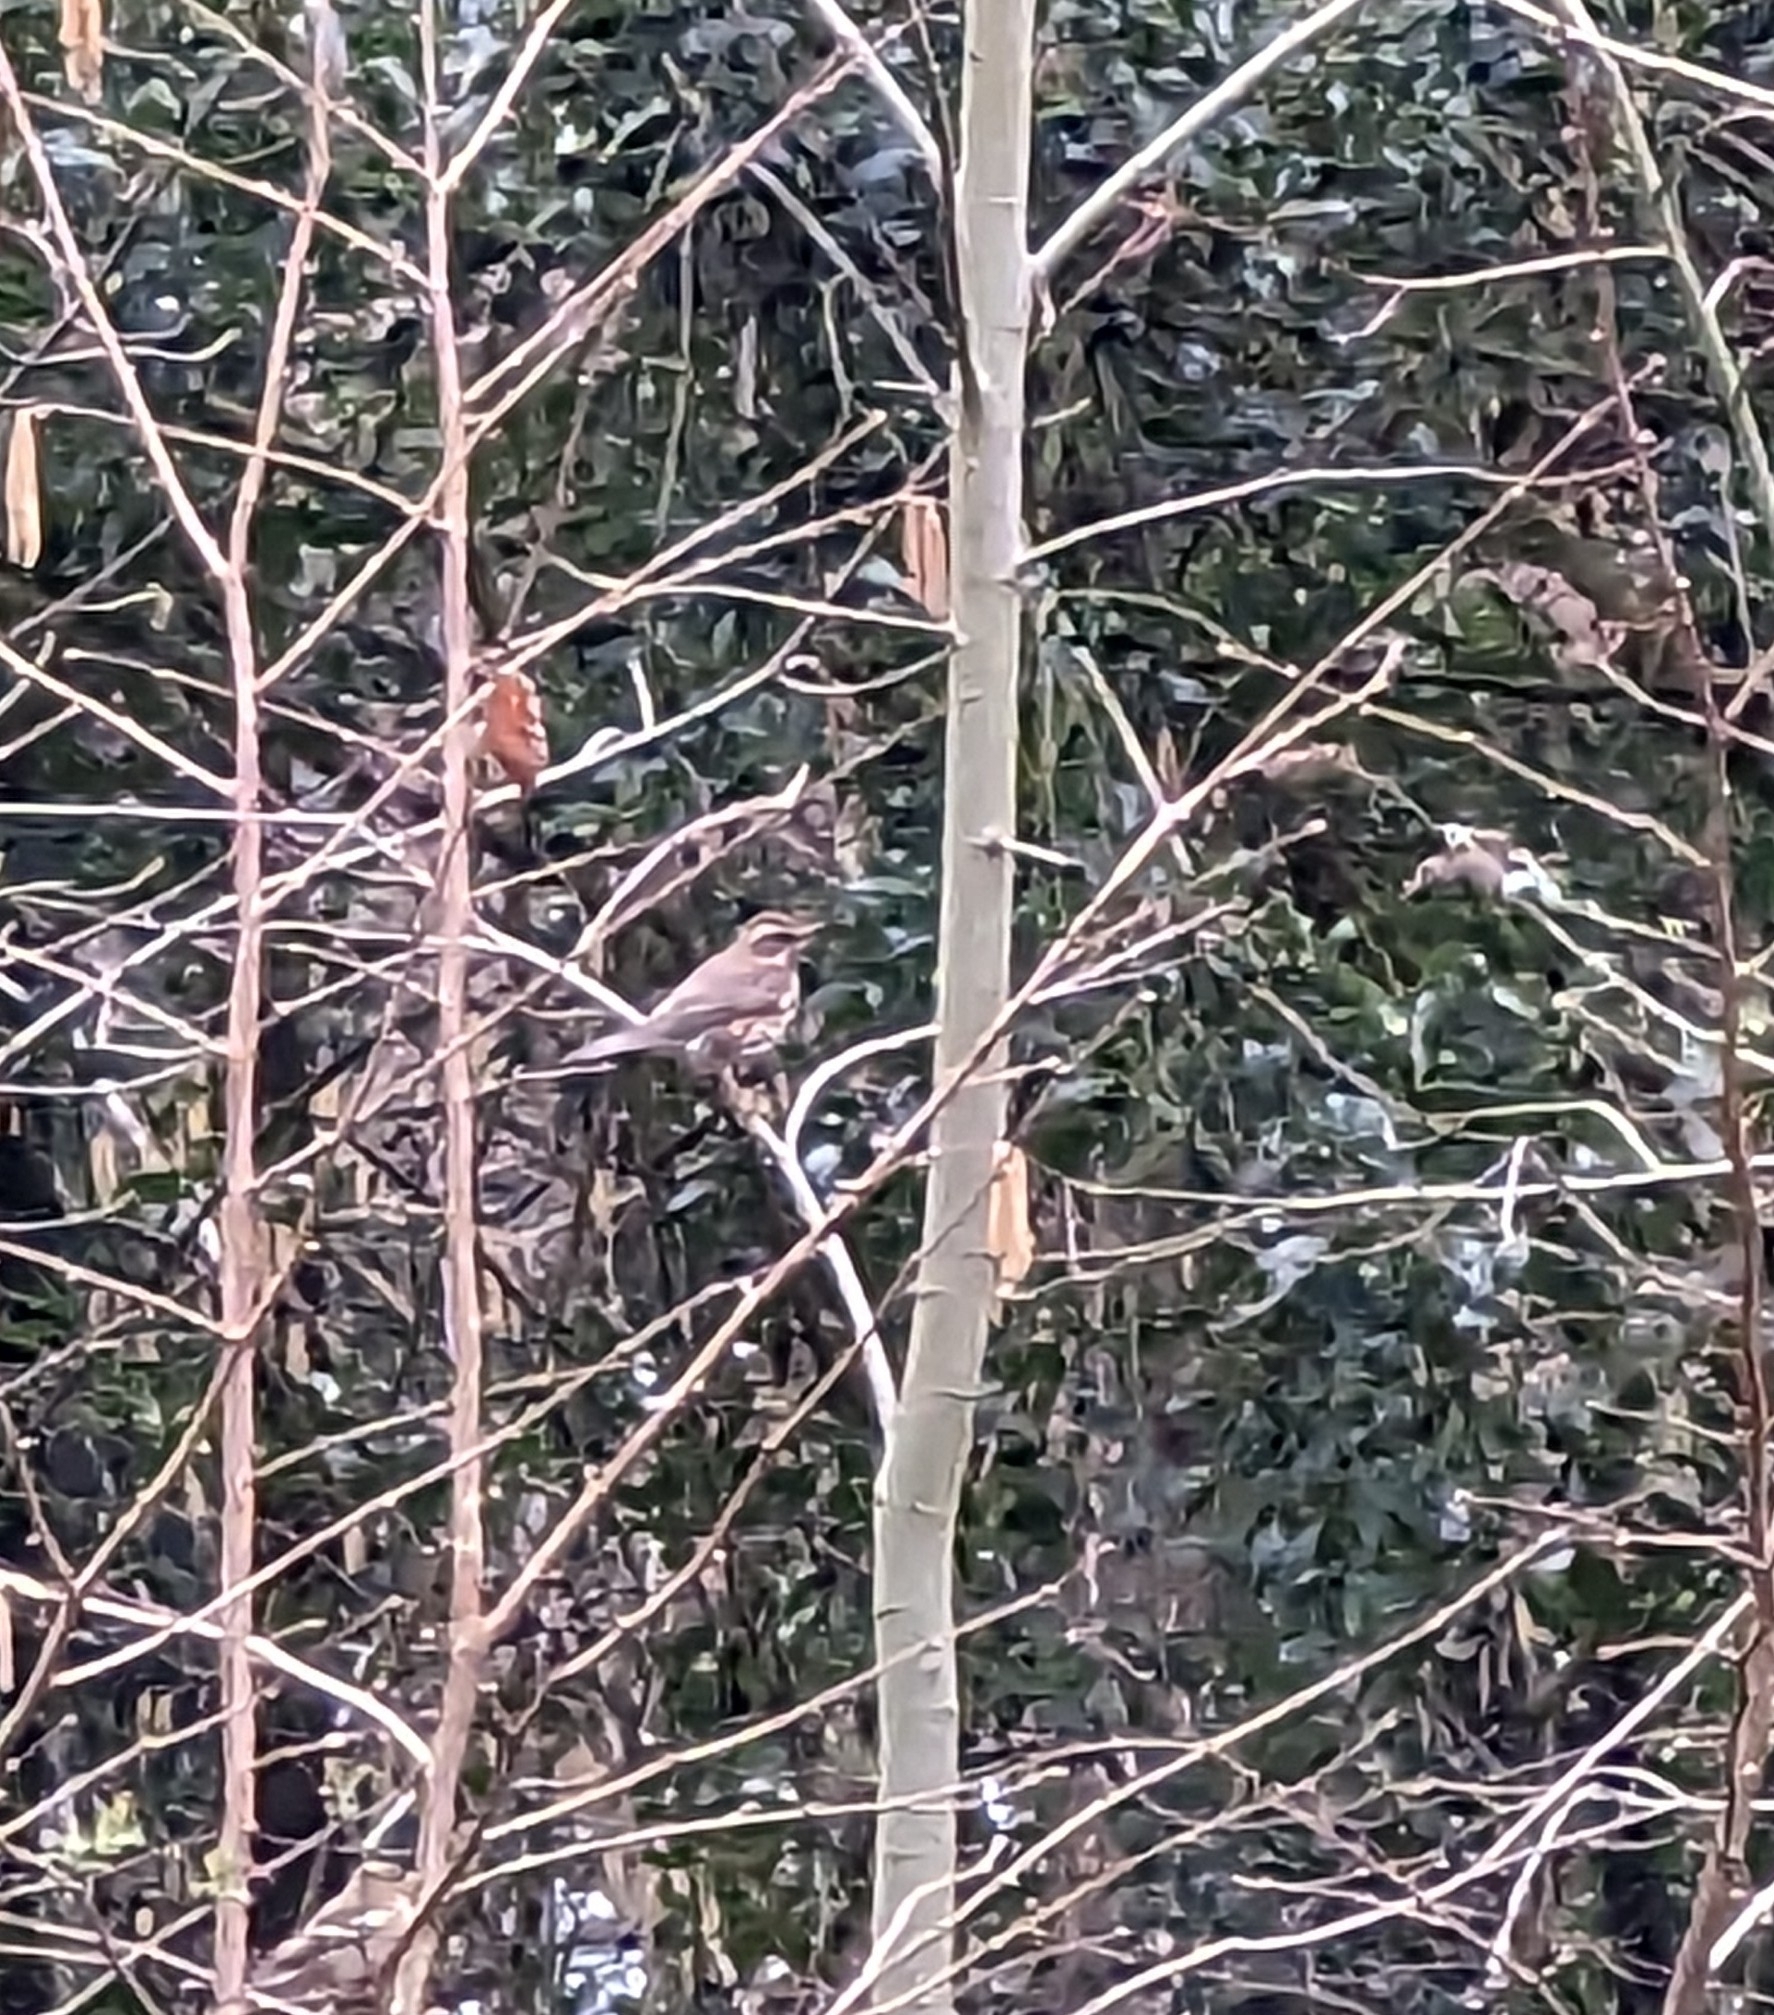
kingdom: Animalia
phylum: Chordata
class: Aves
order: Passeriformes
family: Turdidae
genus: Turdus
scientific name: Turdus iliacus
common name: Redwing
